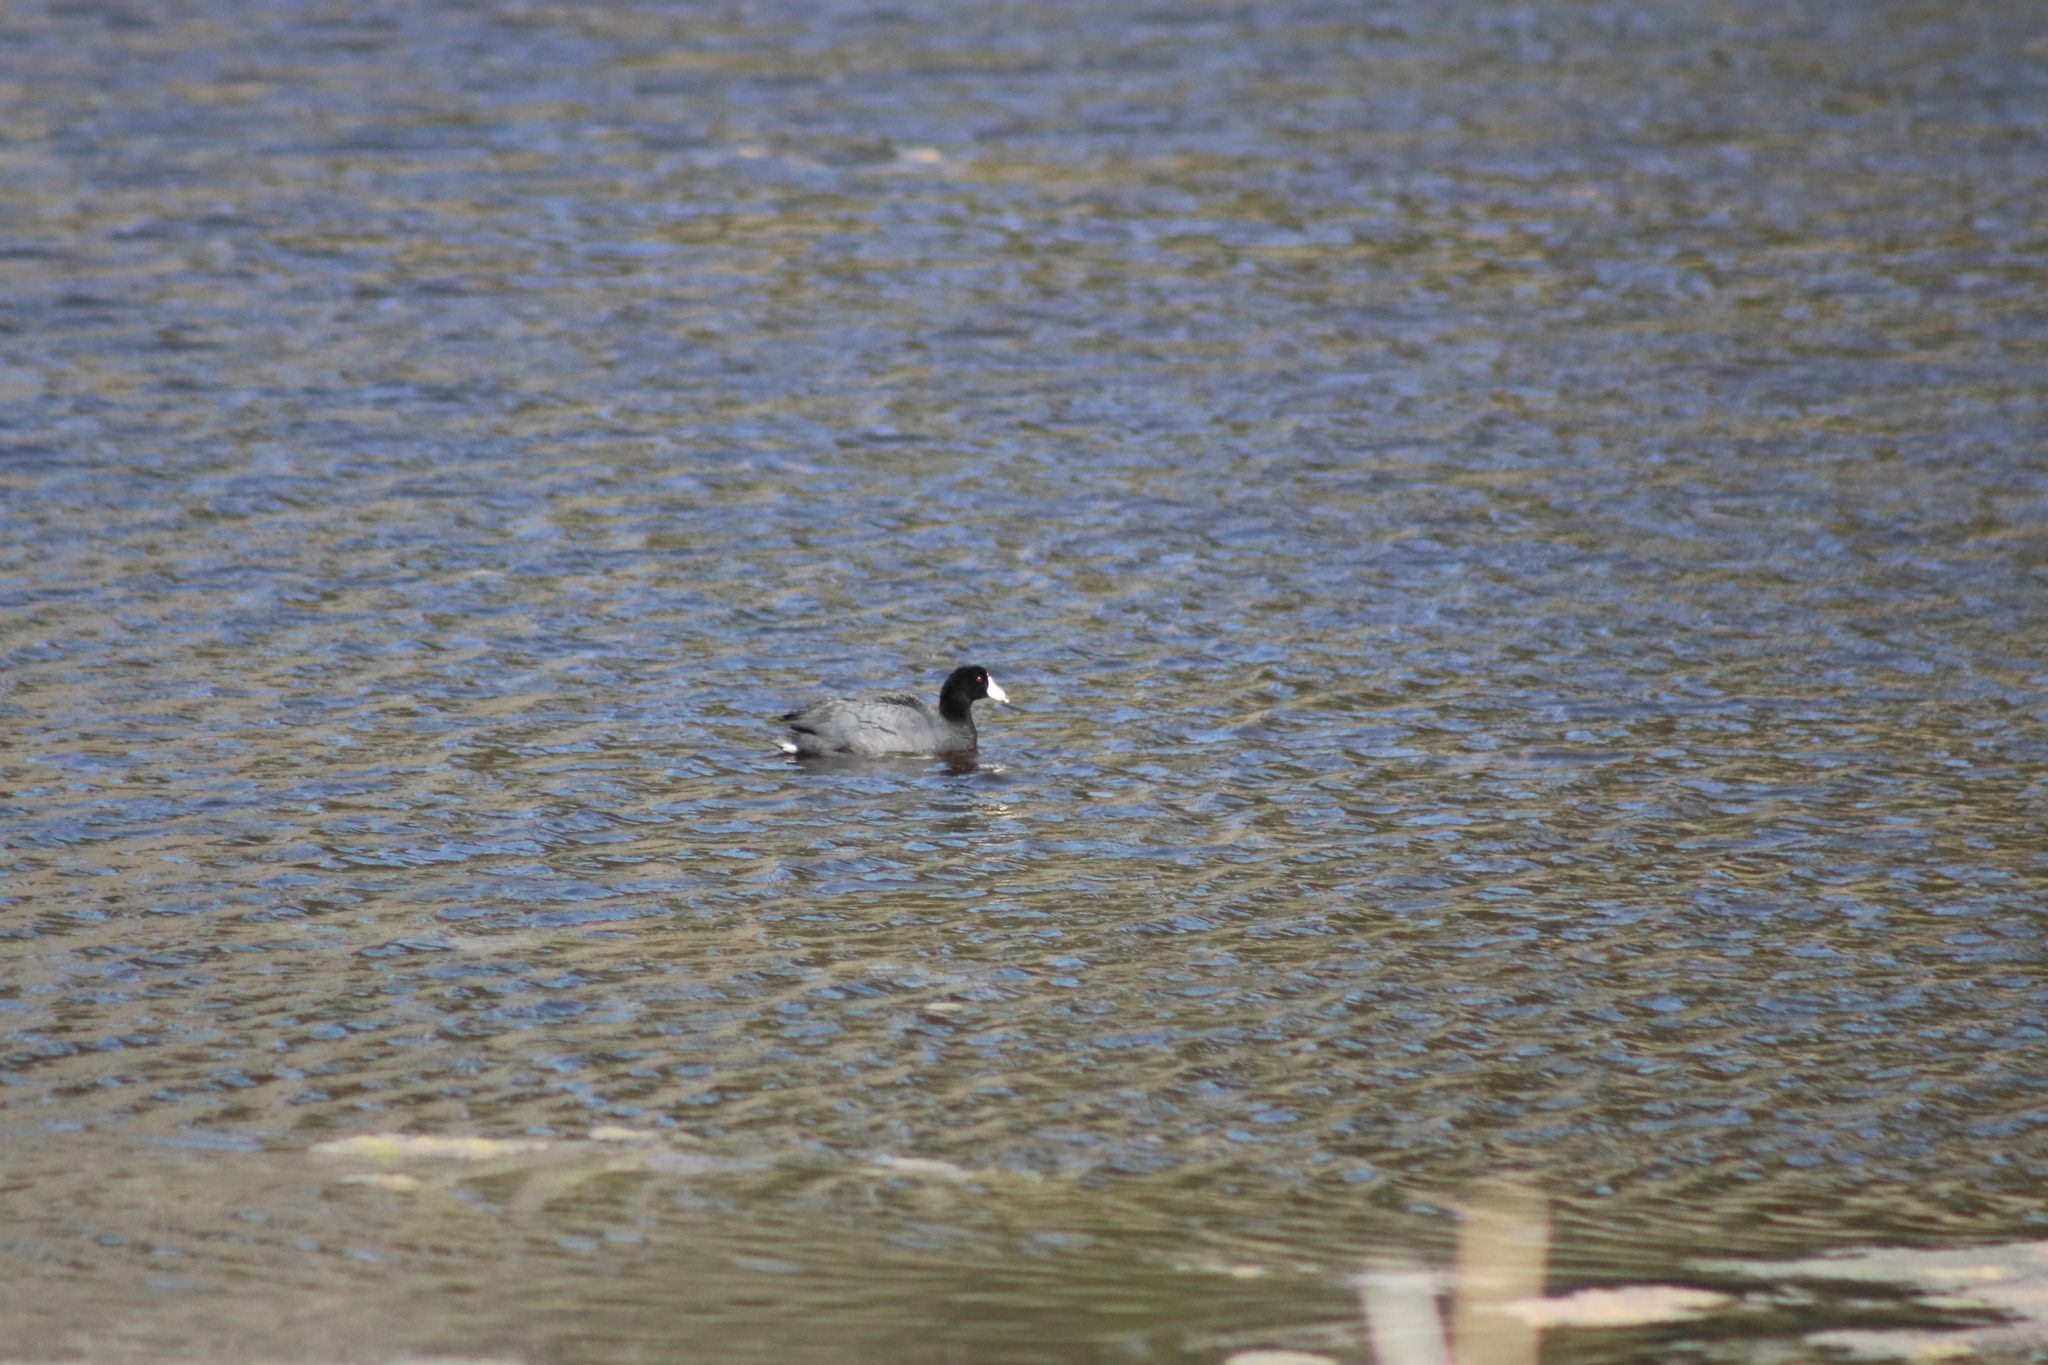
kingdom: Animalia
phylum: Chordata
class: Aves
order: Gruiformes
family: Rallidae
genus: Fulica
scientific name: Fulica americana
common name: American coot
